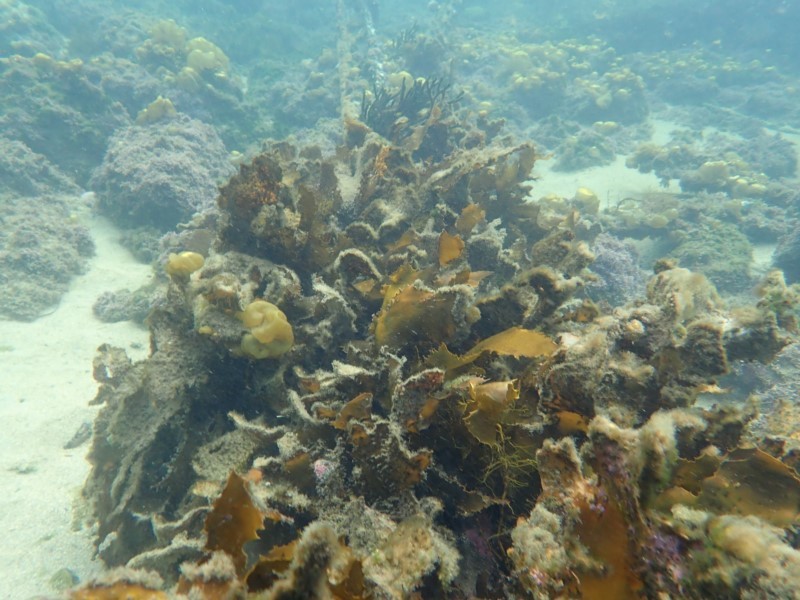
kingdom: Chromista
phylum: Ochrophyta
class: Phaeophyceae
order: Laminariales
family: Lessoniaceae
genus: Ecklonia
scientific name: Ecklonia radiata
